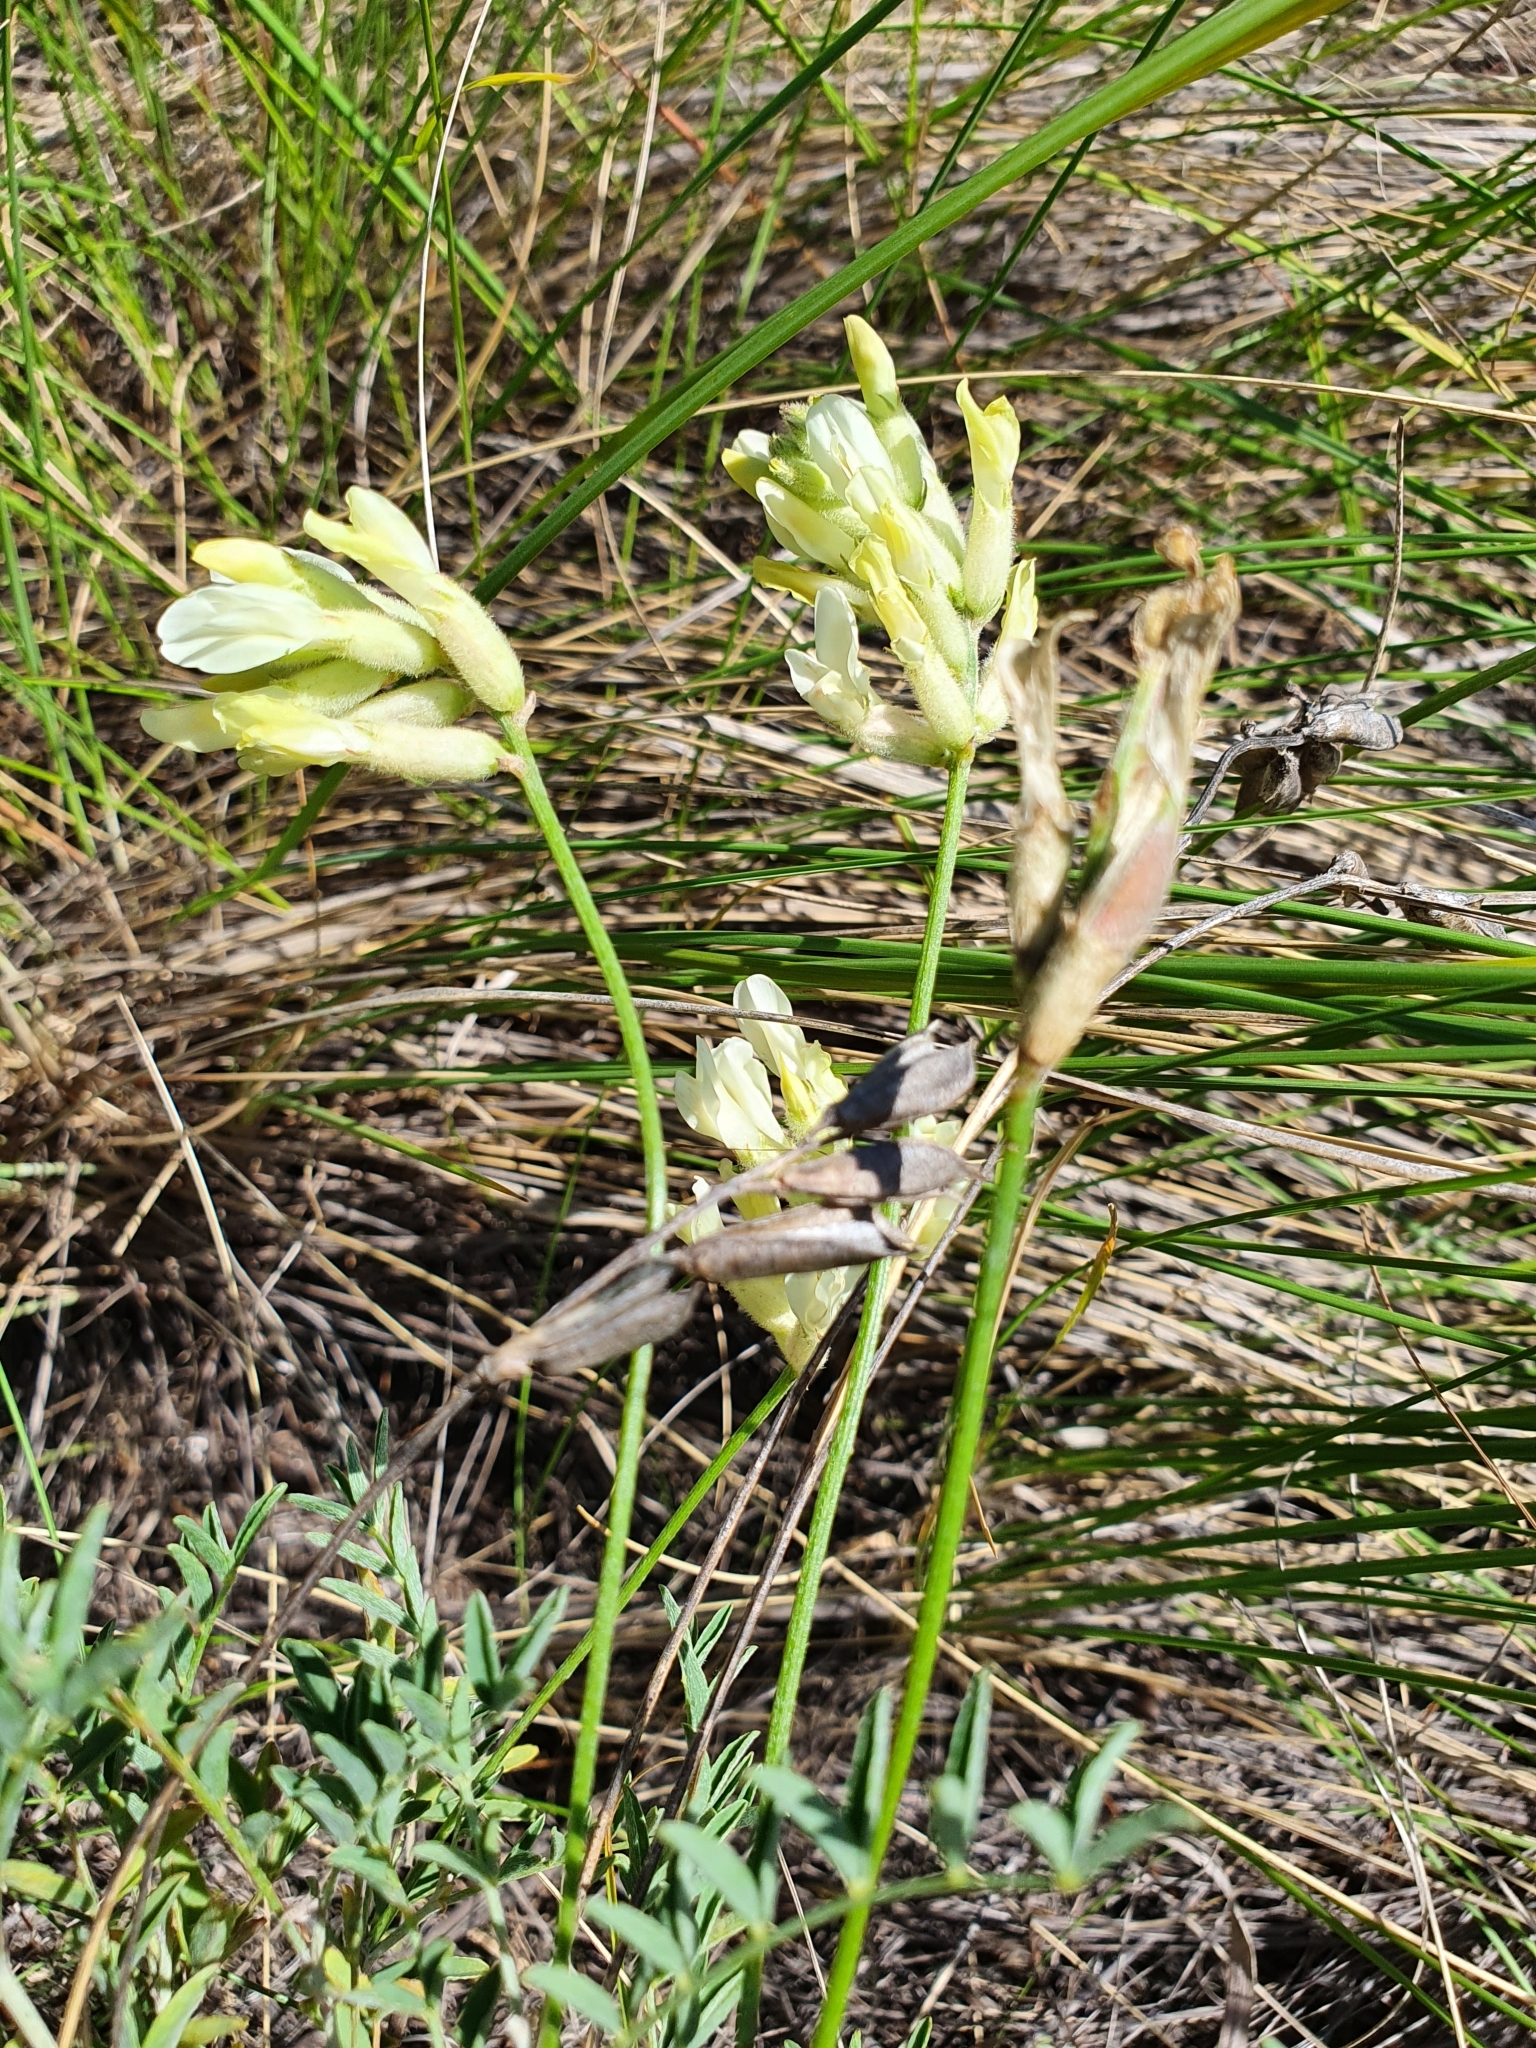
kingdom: Plantae
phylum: Tracheophyta
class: Magnoliopsida
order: Fabales
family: Fabaceae
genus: Astragalus
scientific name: Astragalus zingeri
